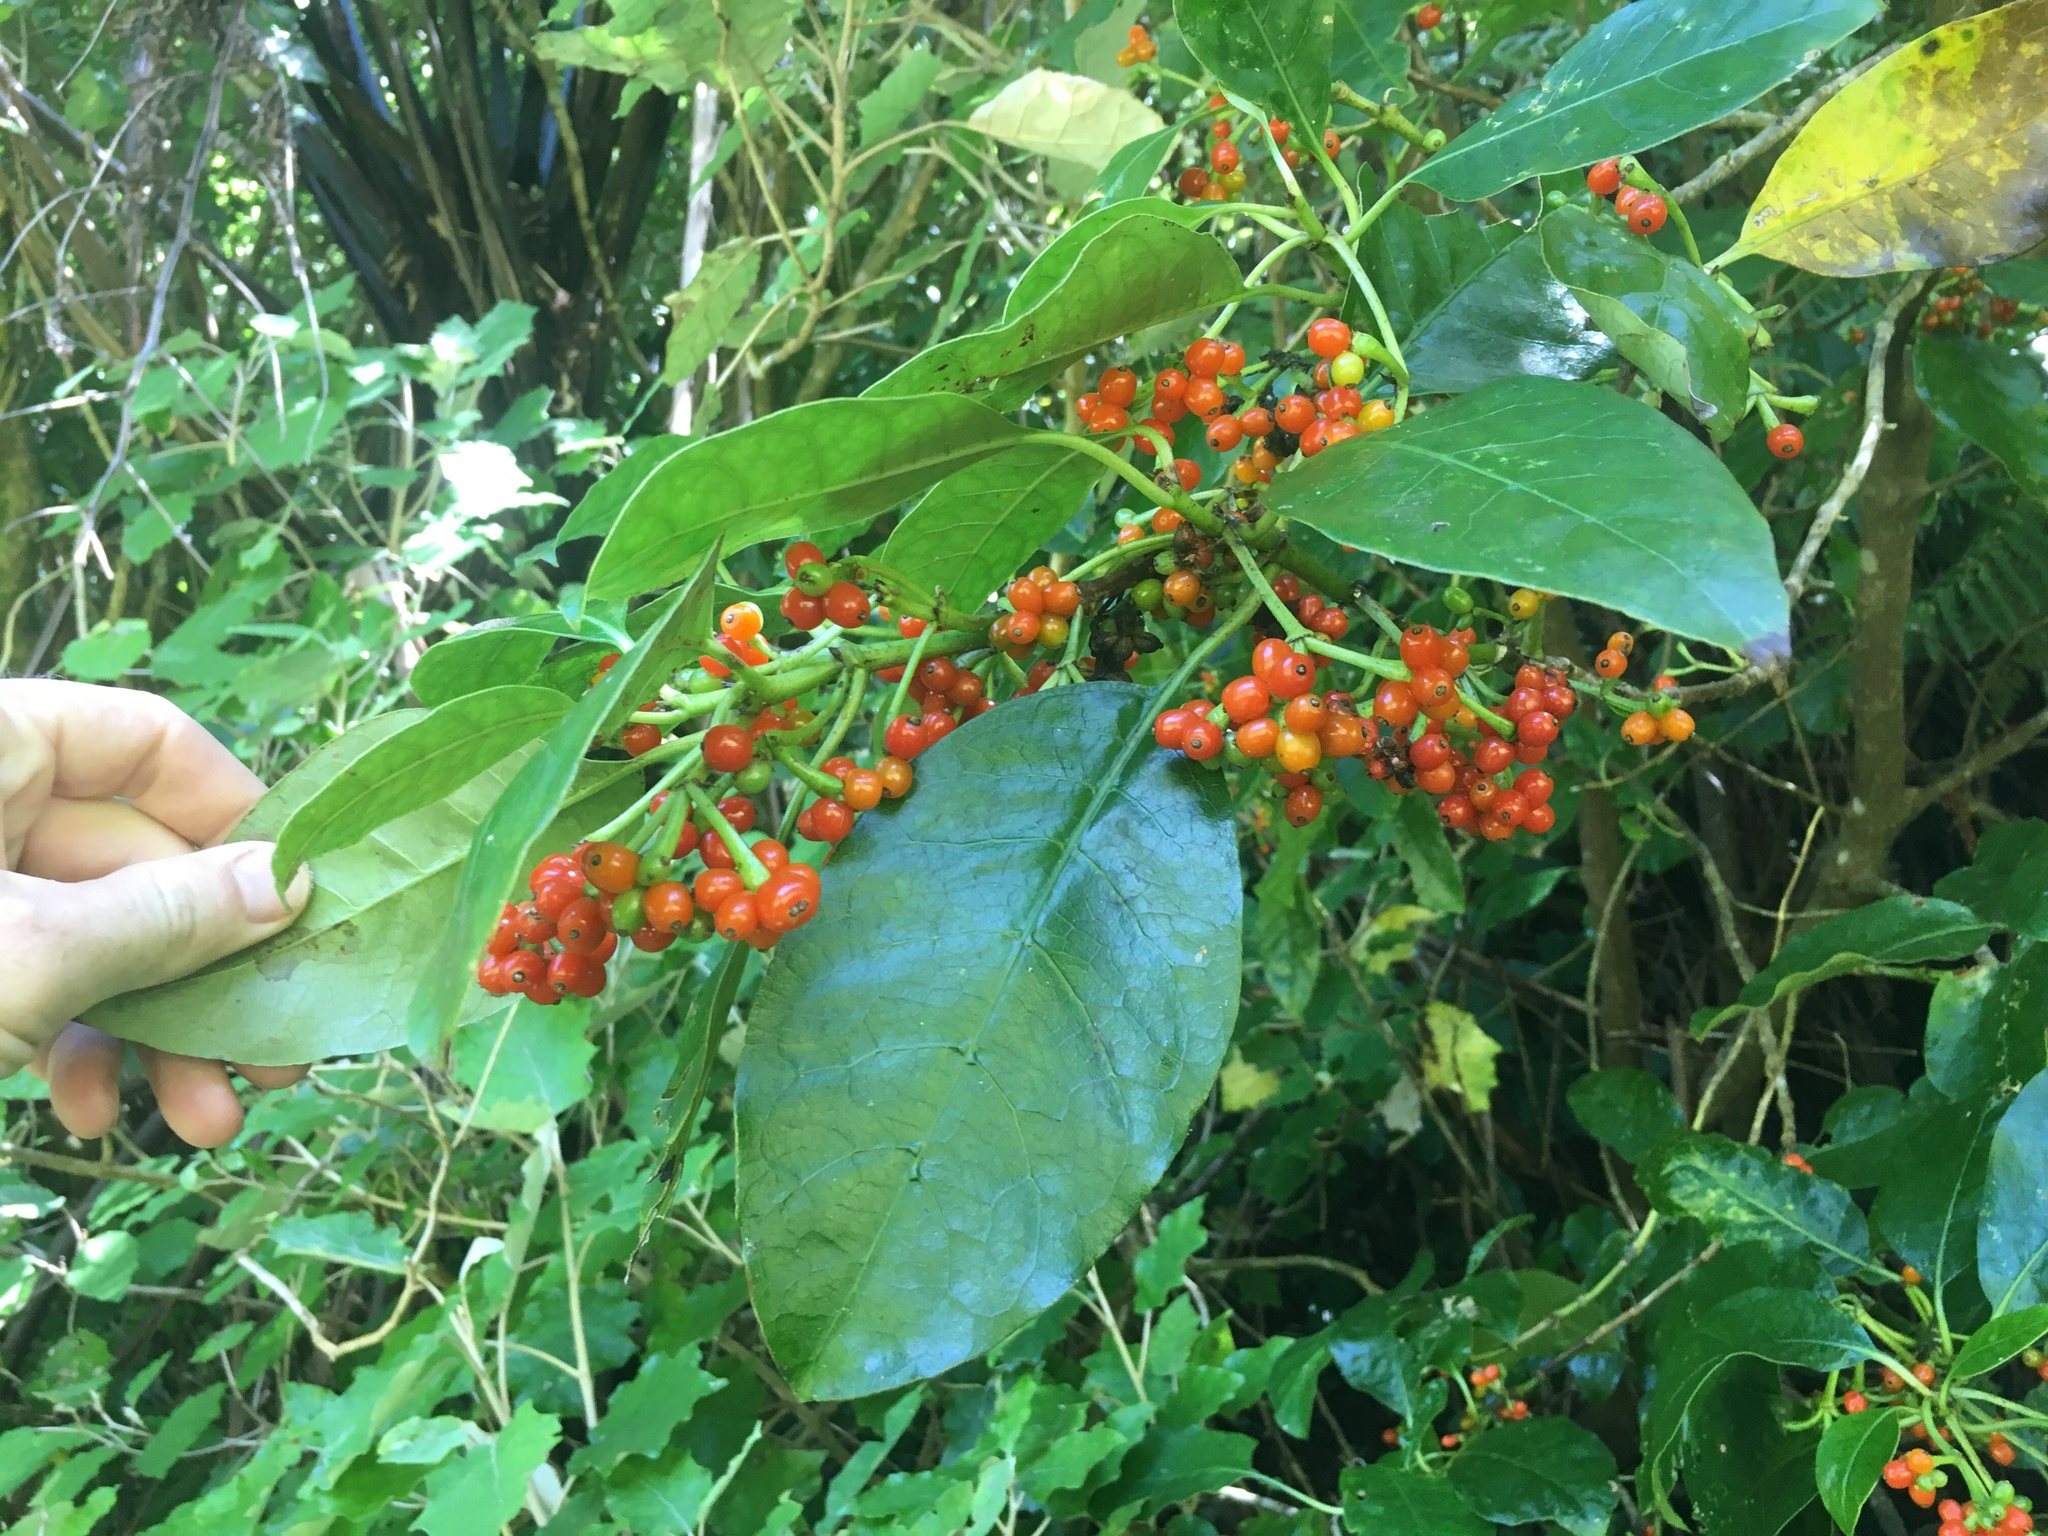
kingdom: Plantae
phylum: Tracheophyta
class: Magnoliopsida
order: Gentianales
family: Rubiaceae
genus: Coprosma
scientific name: Coprosma autumnalis
